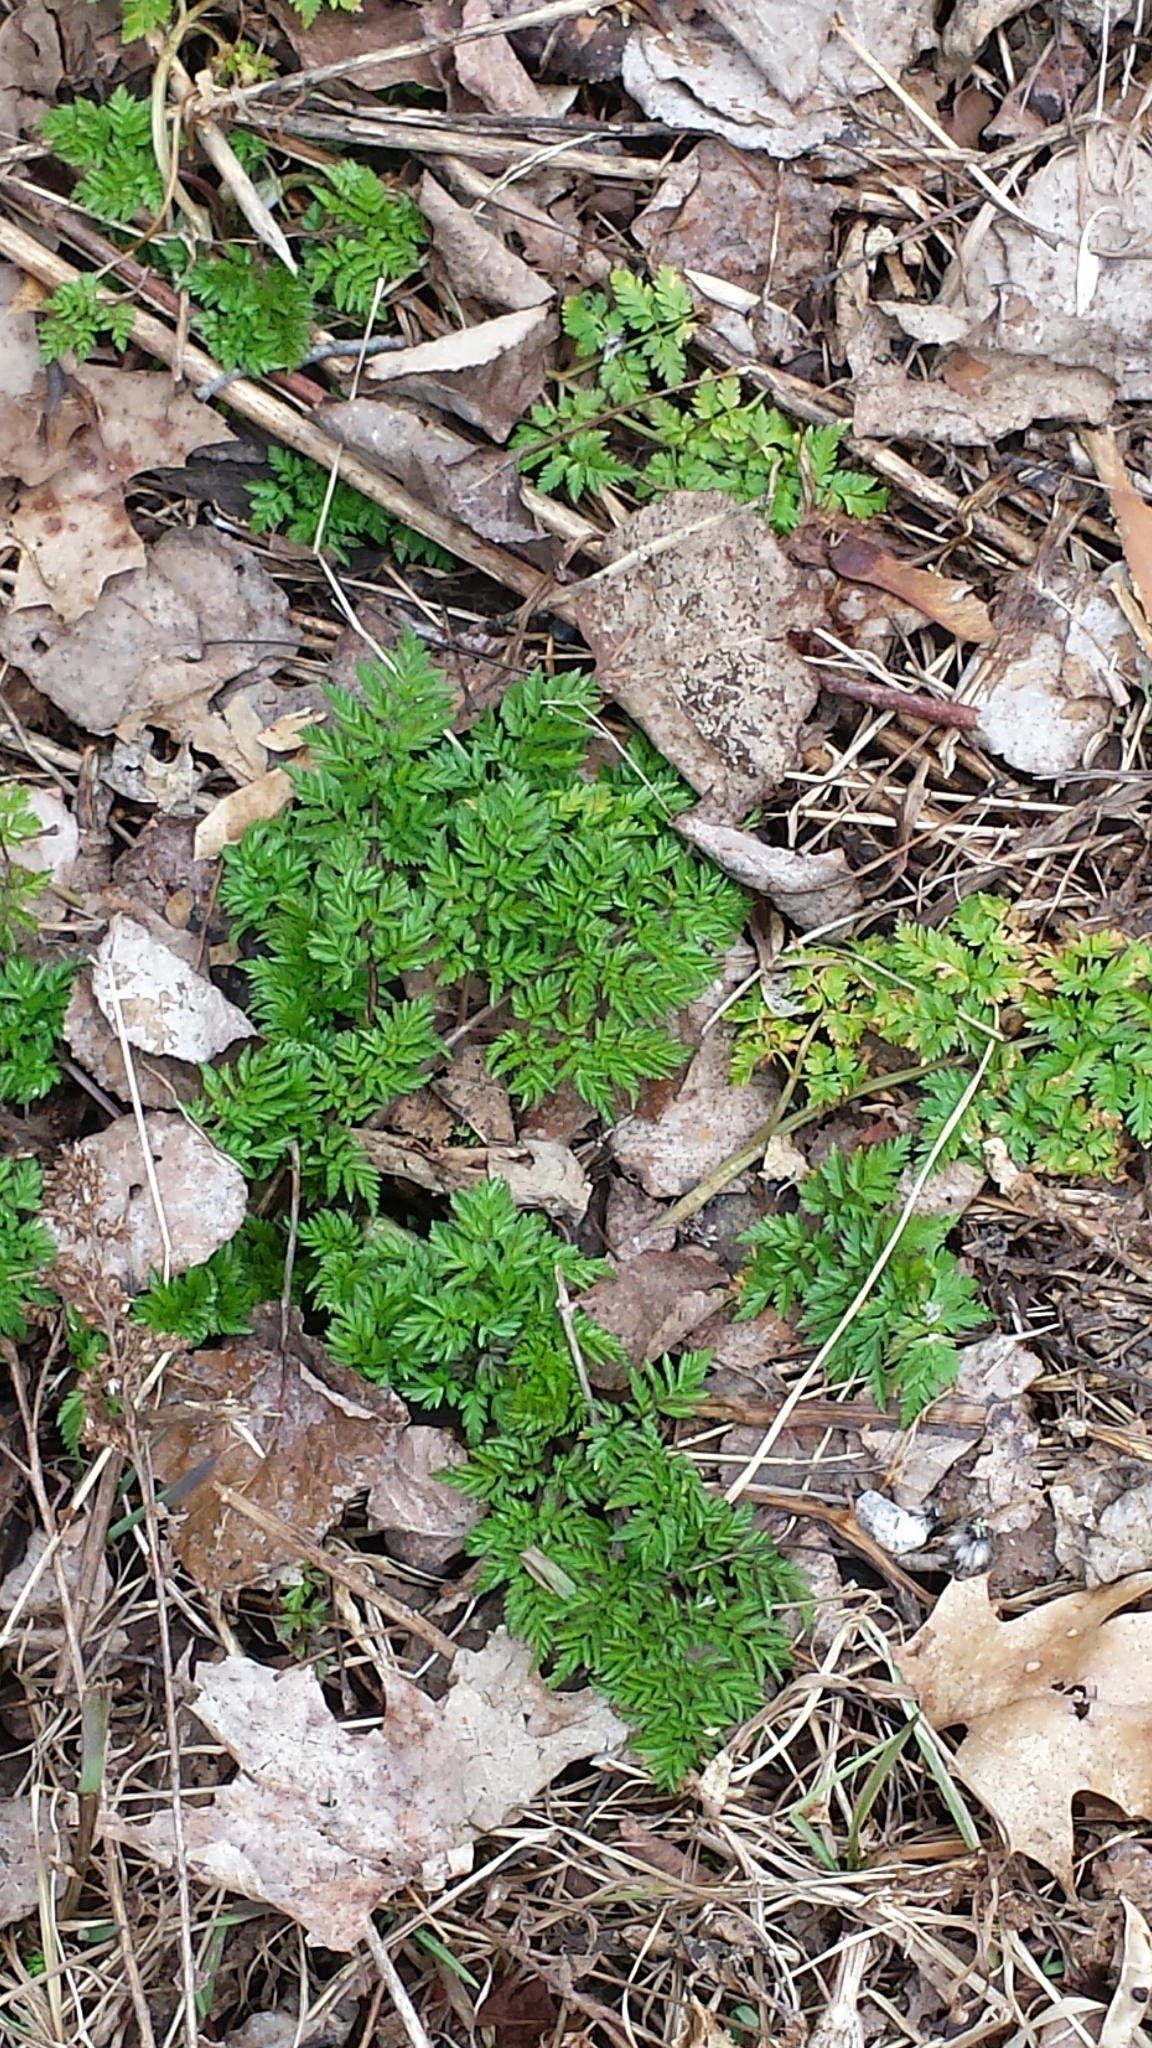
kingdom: Plantae
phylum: Tracheophyta
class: Magnoliopsida
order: Apiales
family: Apiaceae
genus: Anthriscus
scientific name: Anthriscus sylvestris
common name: Cow parsley
